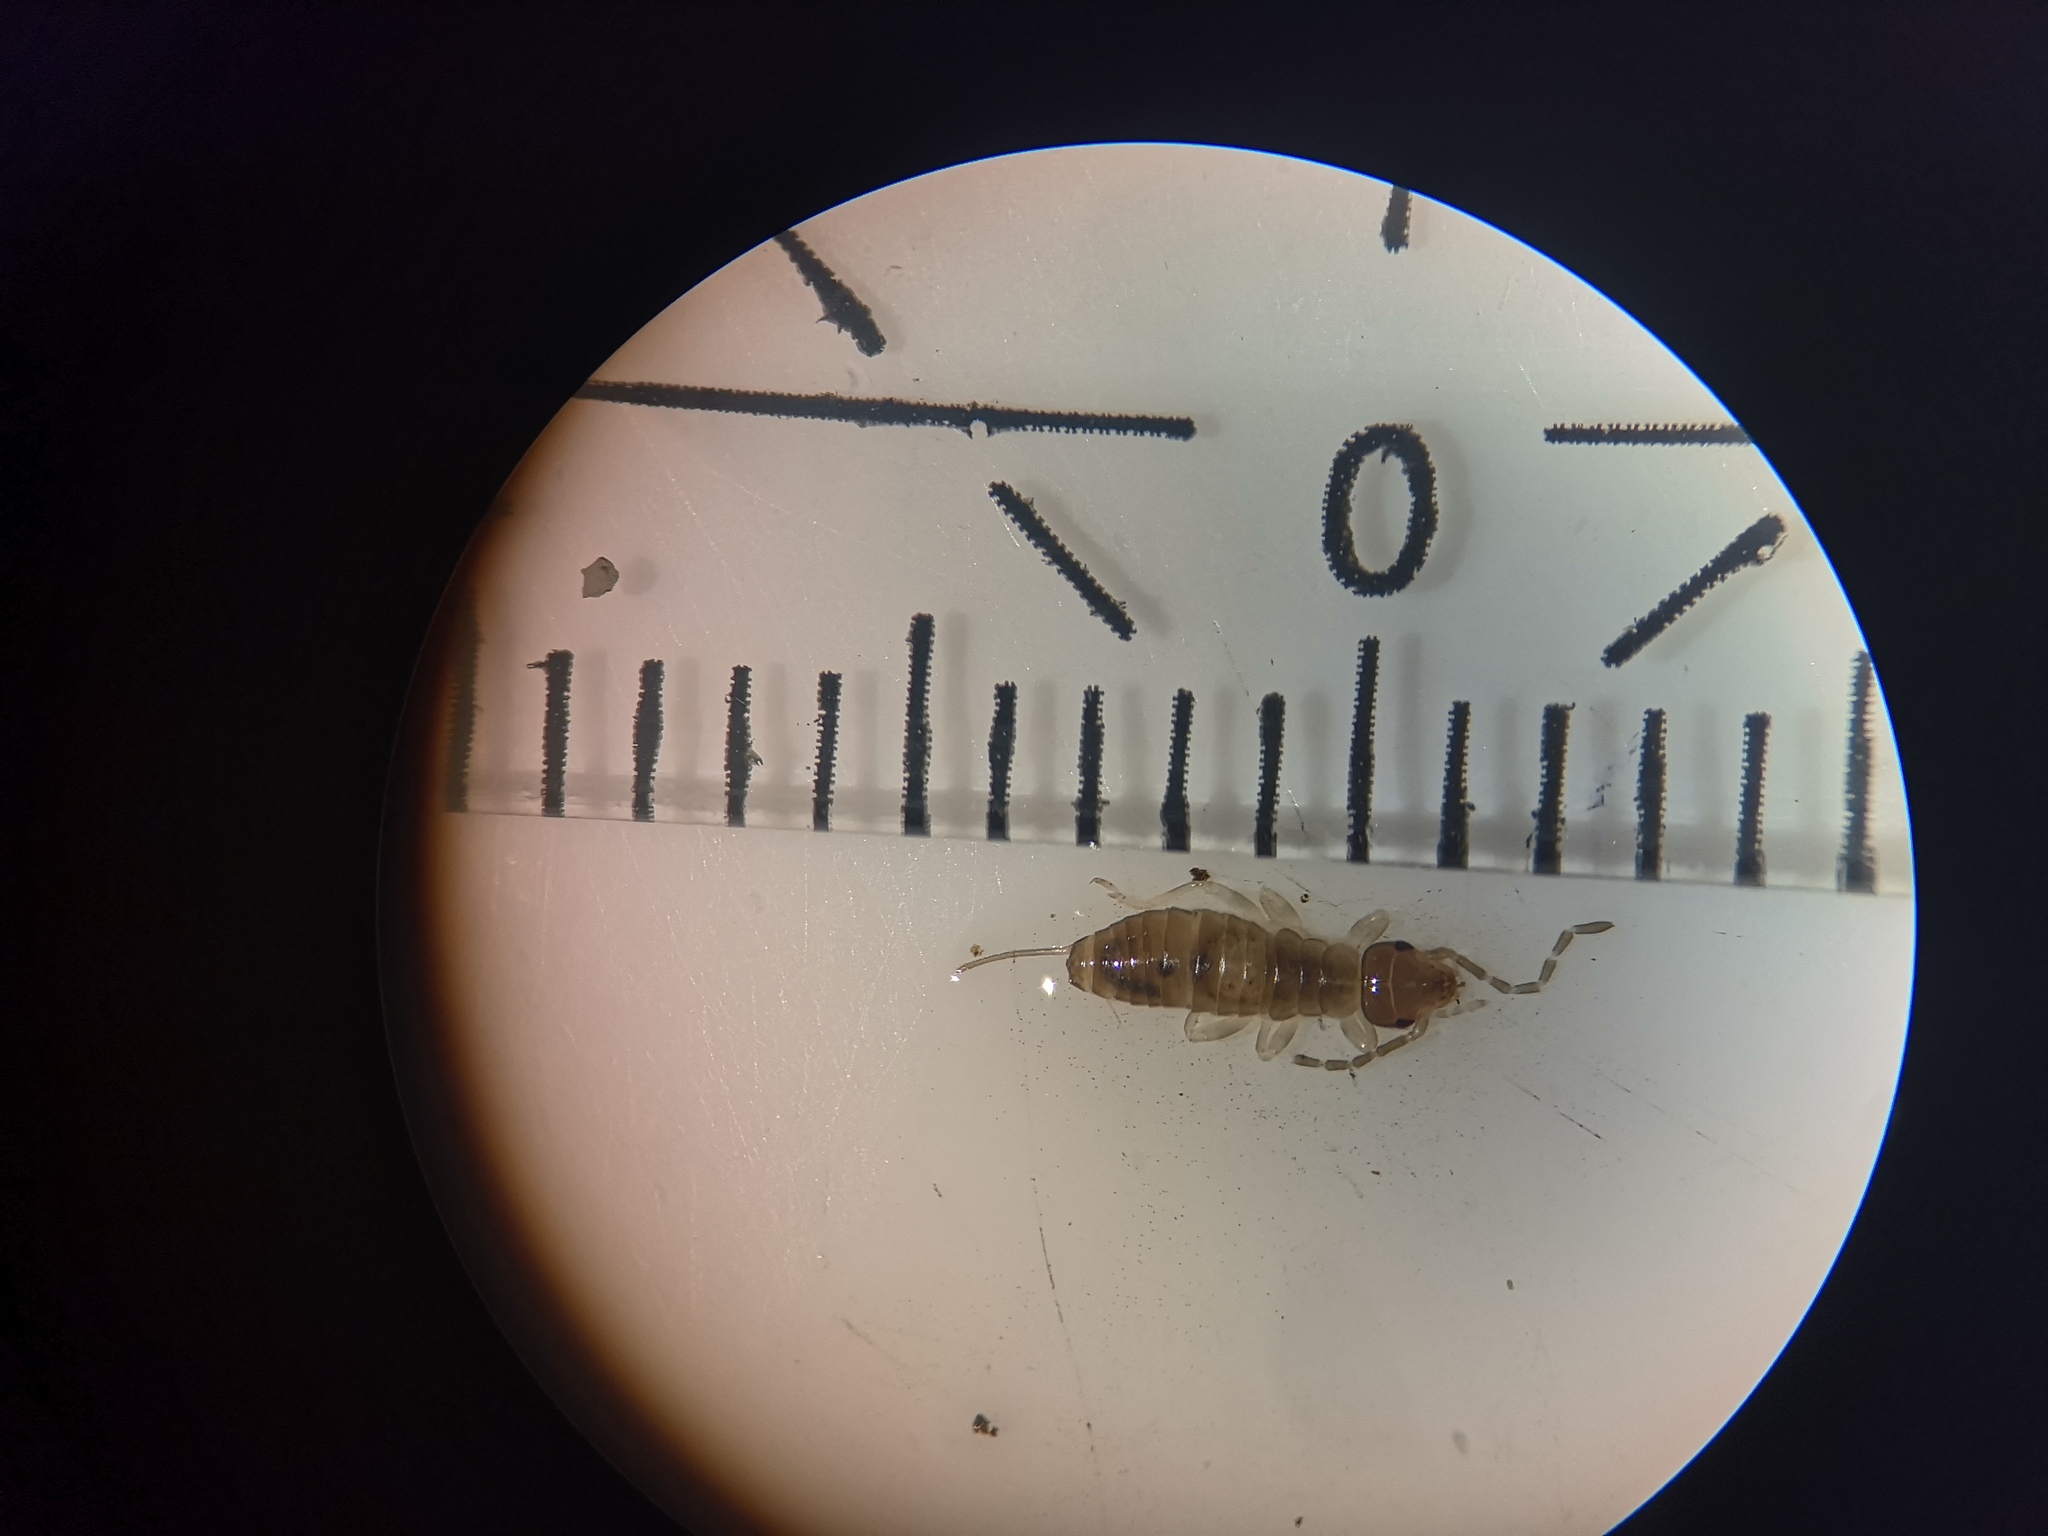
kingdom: Animalia
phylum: Arthropoda
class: Insecta
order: Dermaptera
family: Forficulidae
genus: Forficula
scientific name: Forficula
